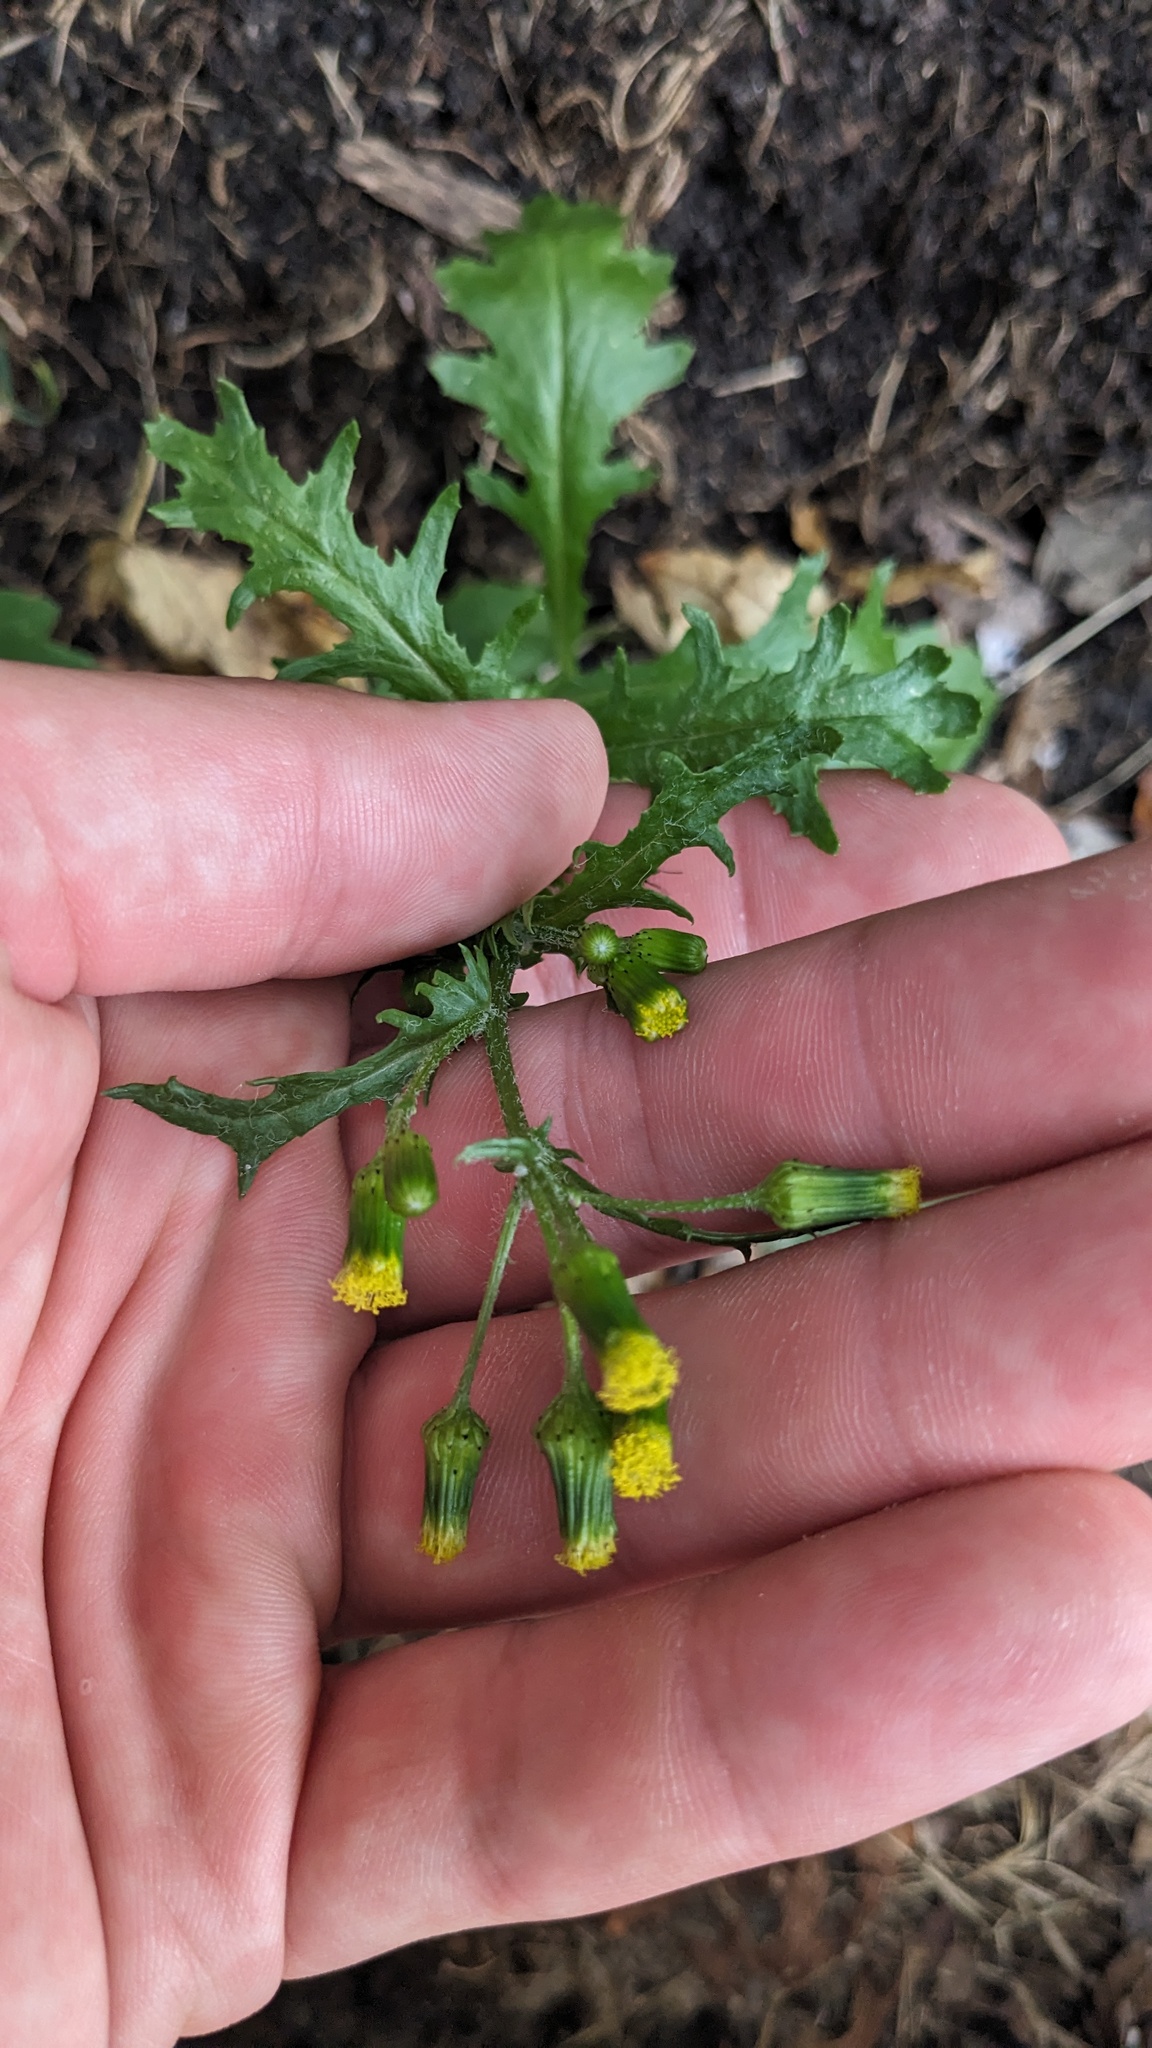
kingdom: Plantae
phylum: Tracheophyta
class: Magnoliopsida
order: Asterales
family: Asteraceae
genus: Senecio
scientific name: Senecio vulgaris
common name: Old-man-in-the-spring
